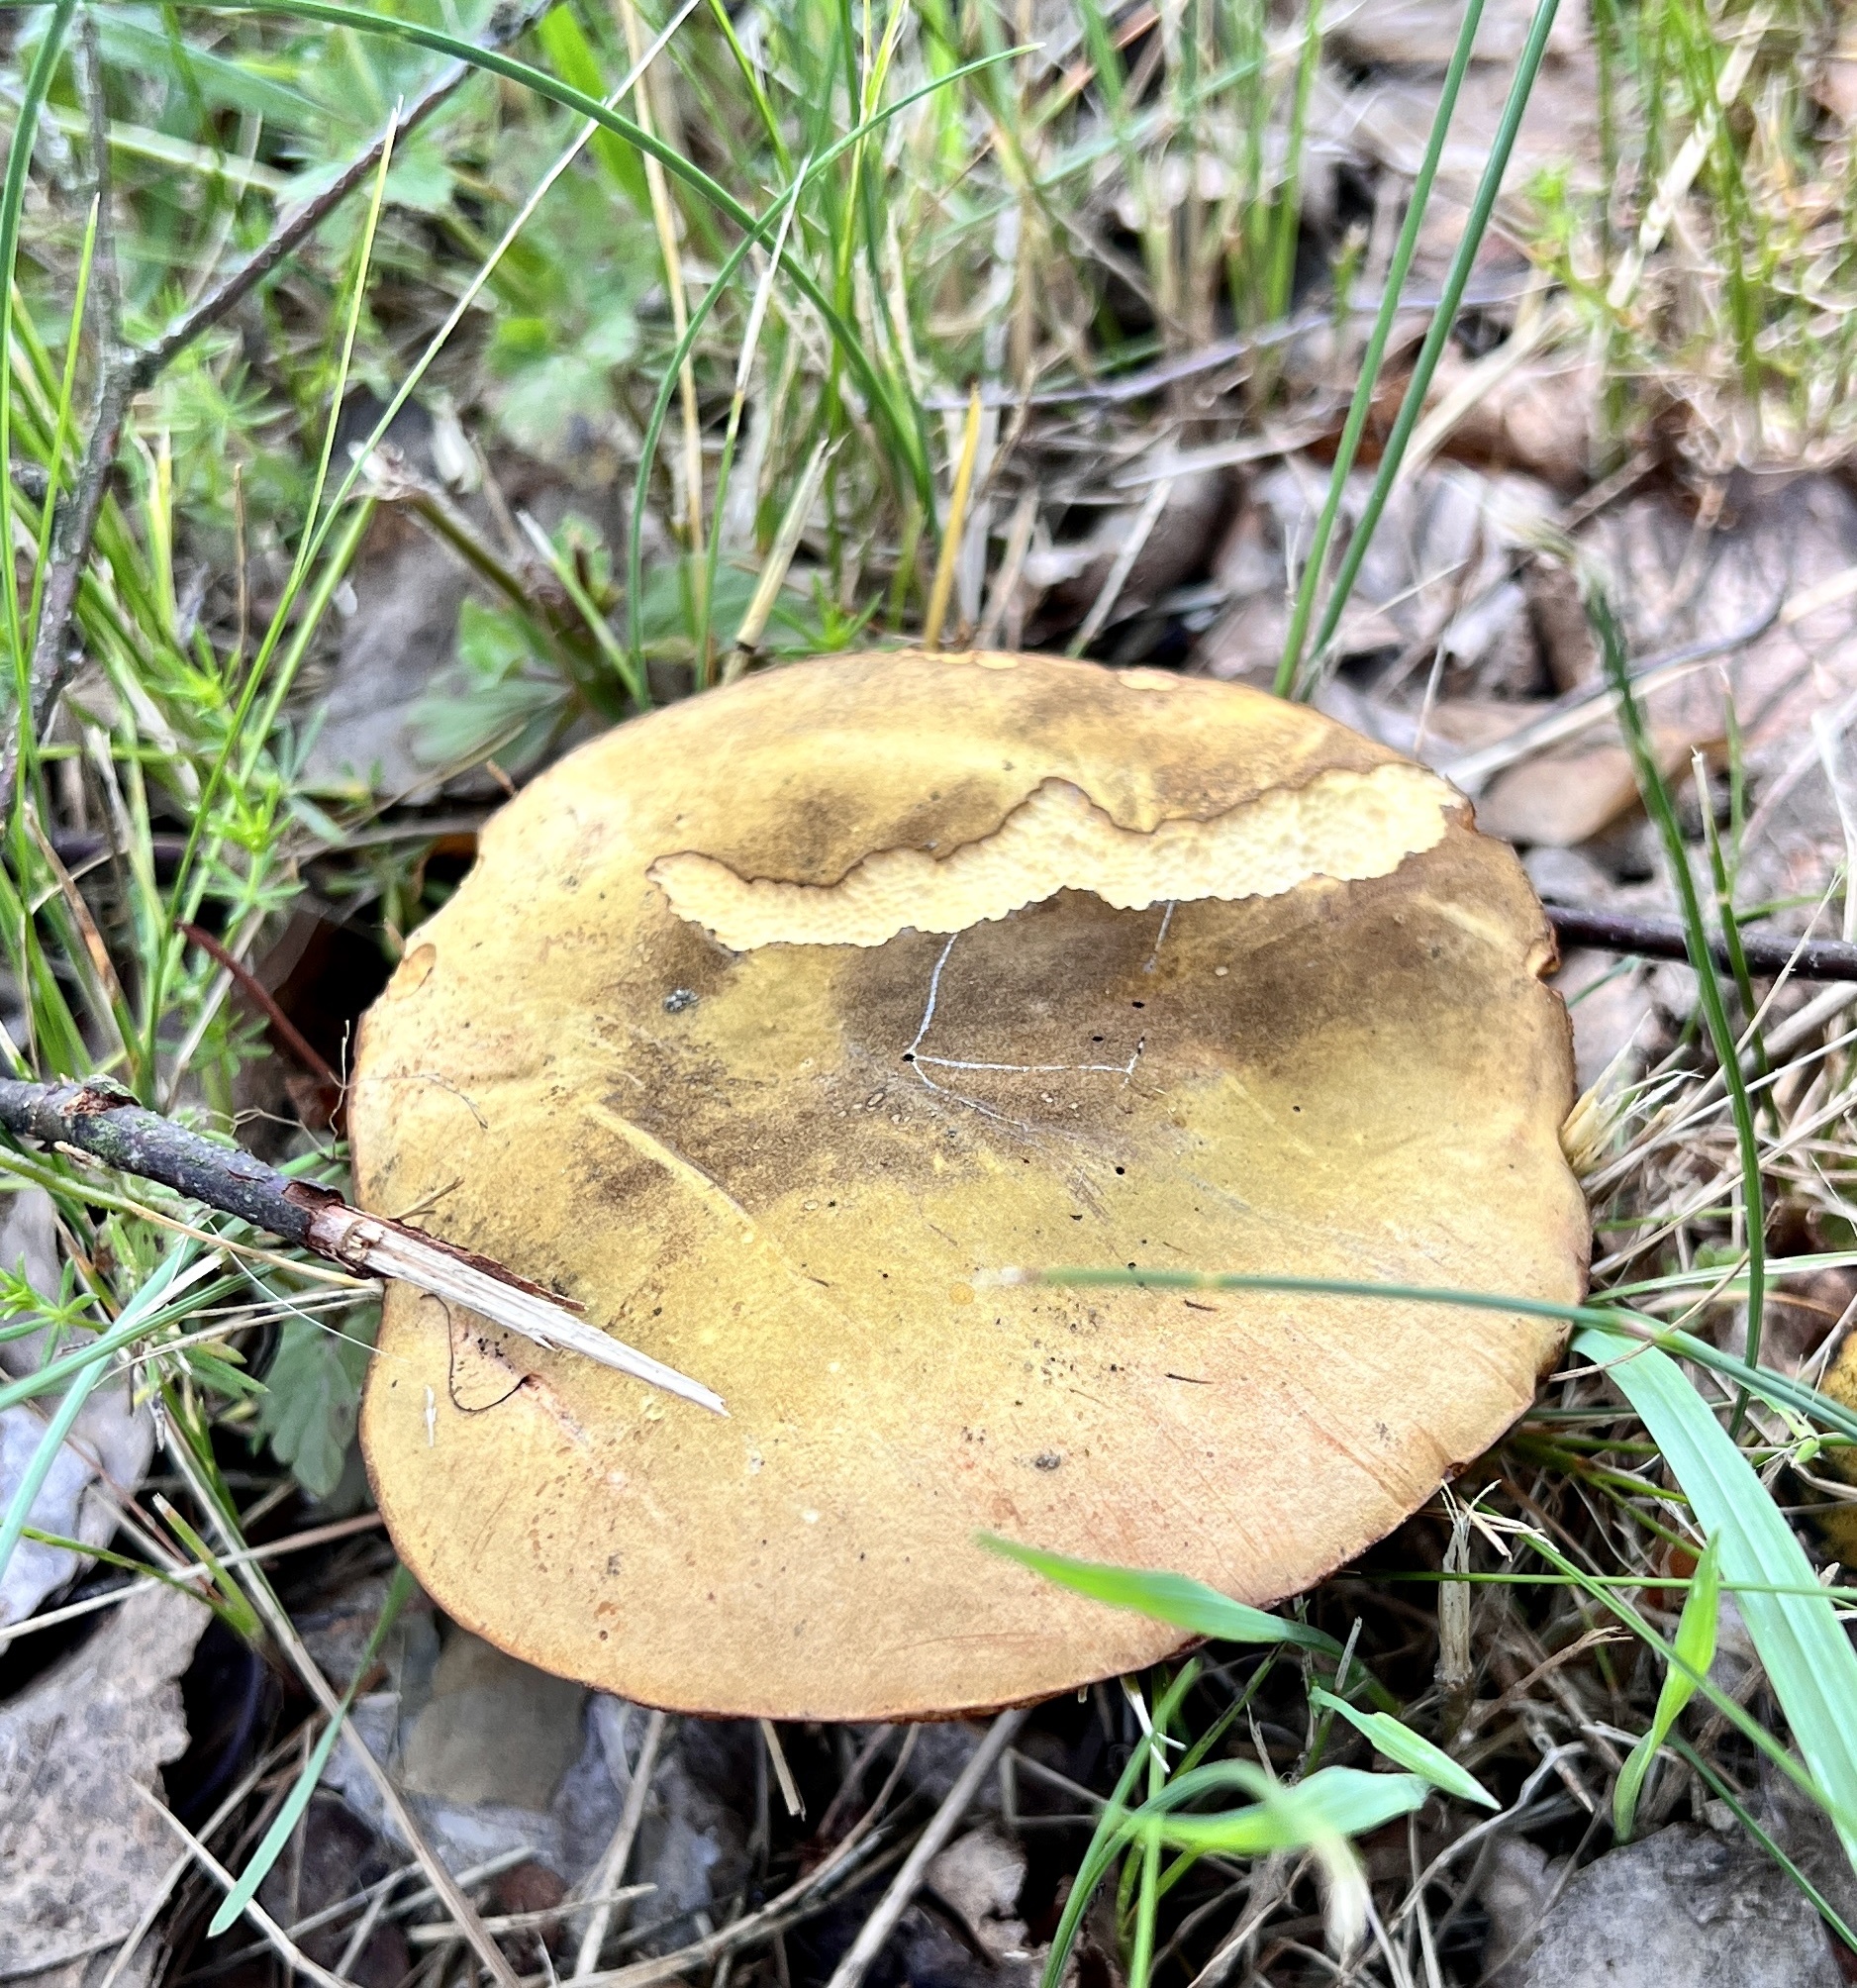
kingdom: Fungi
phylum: Basidiomycota
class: Agaricomycetes
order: Boletales
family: Boletaceae
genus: Suillellus
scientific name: Suillellus luridus
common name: Lurid bolete
